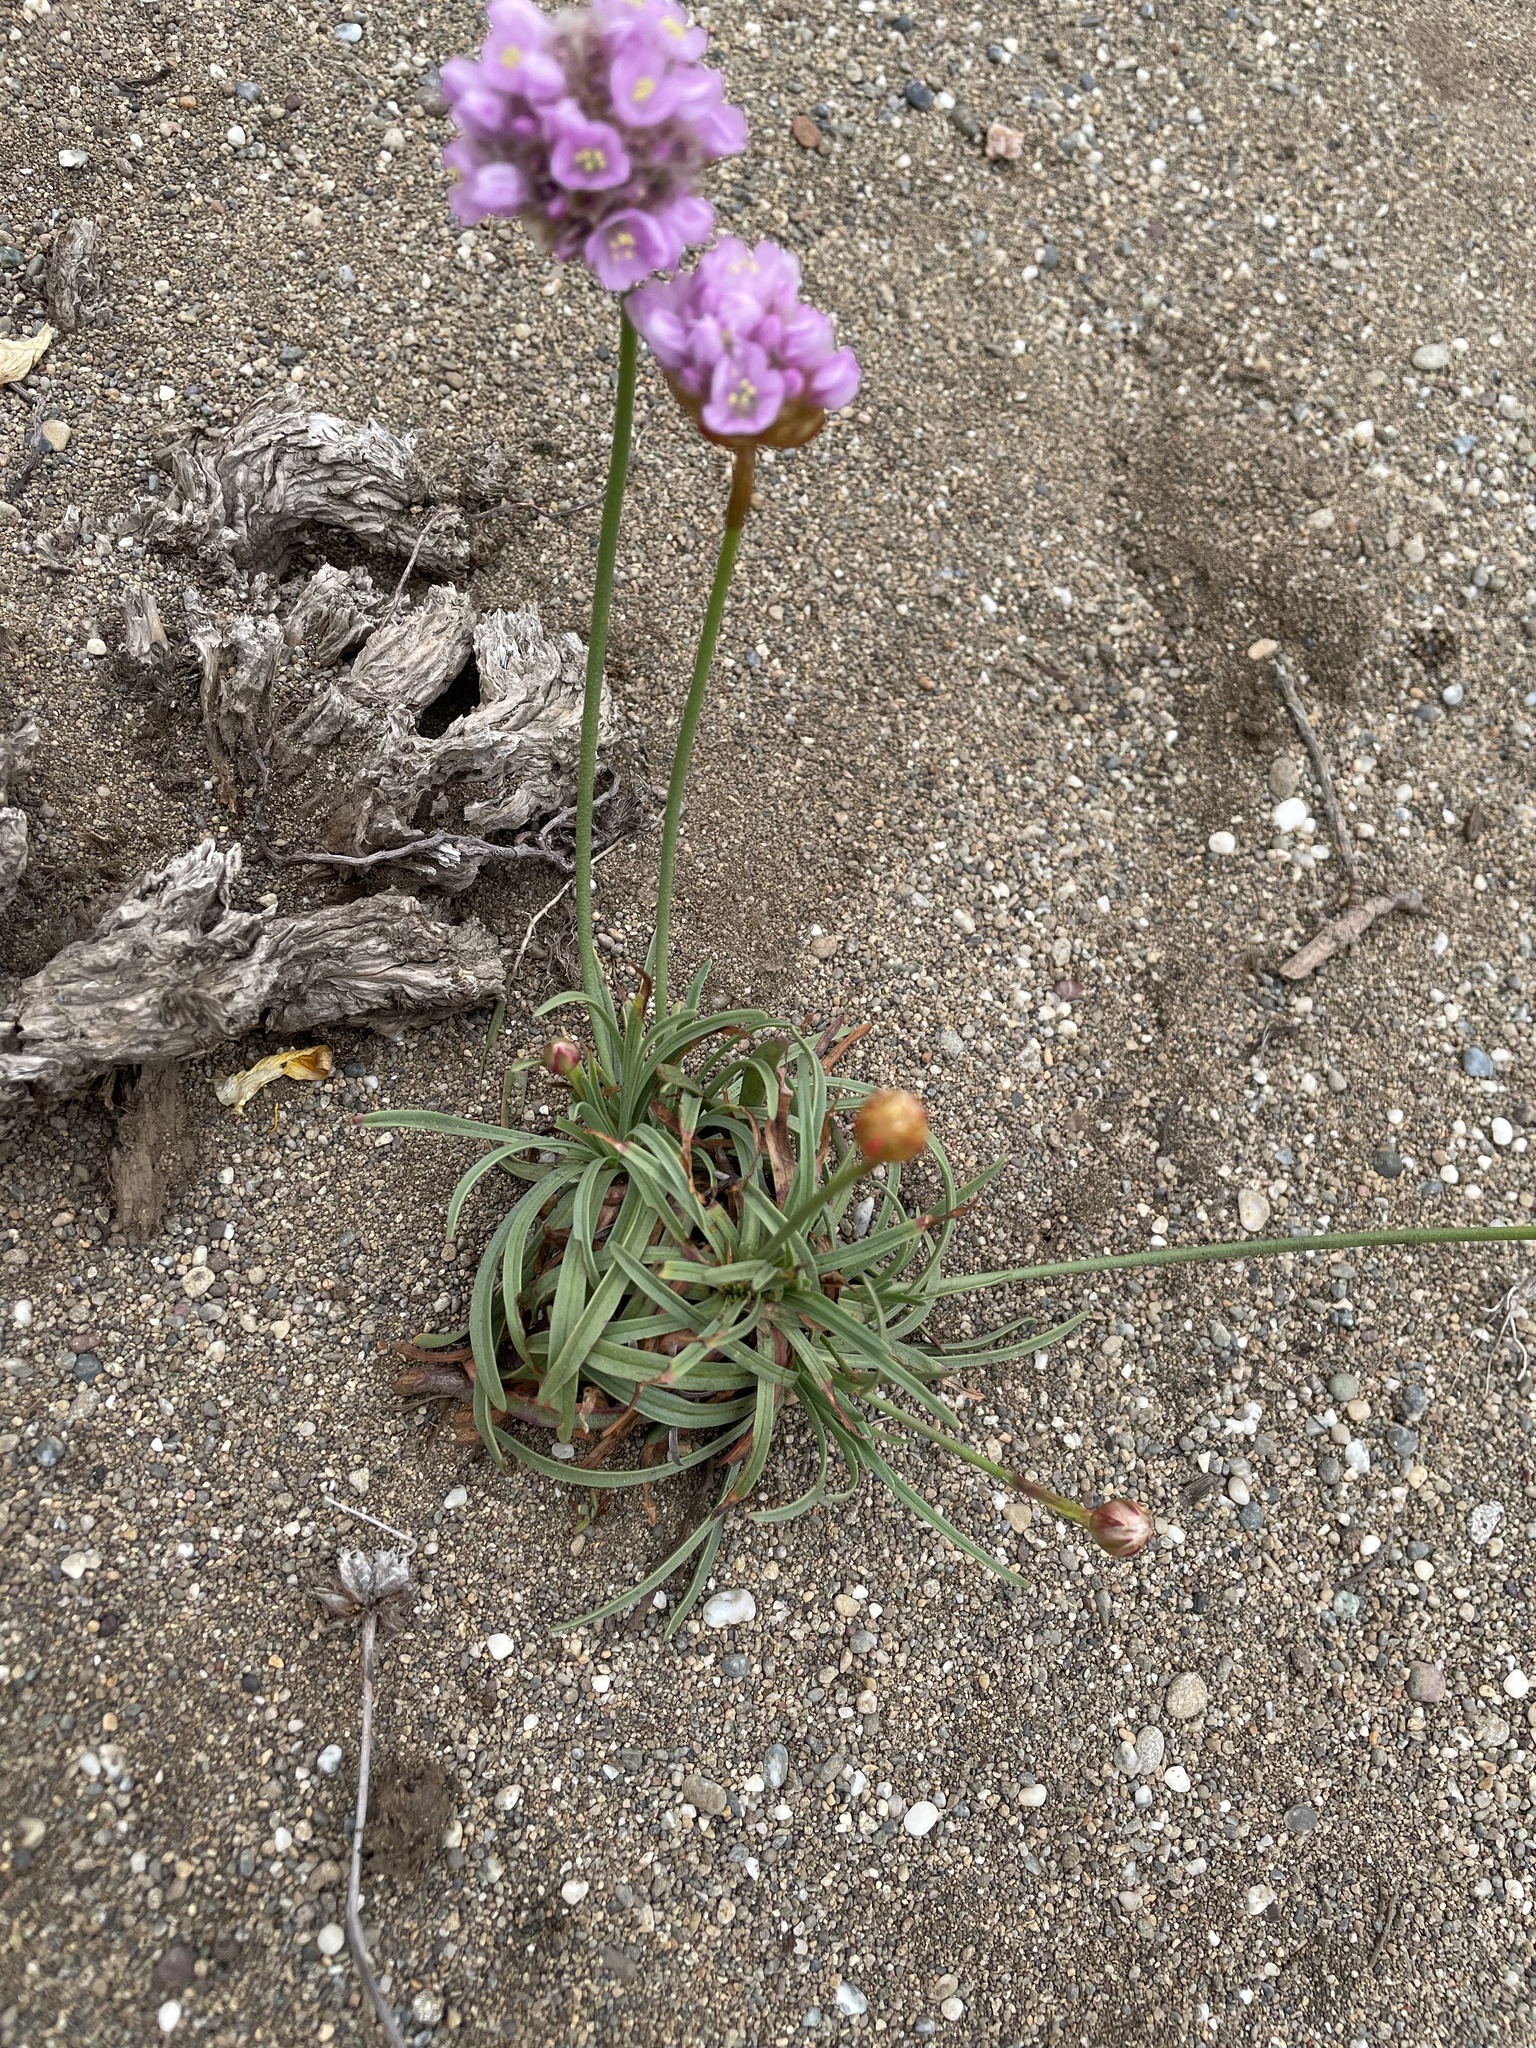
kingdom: Plantae
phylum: Tracheophyta
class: Magnoliopsida
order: Caryophyllales
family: Plumbaginaceae
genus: Armeria
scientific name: Armeria maritima
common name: Thrift
